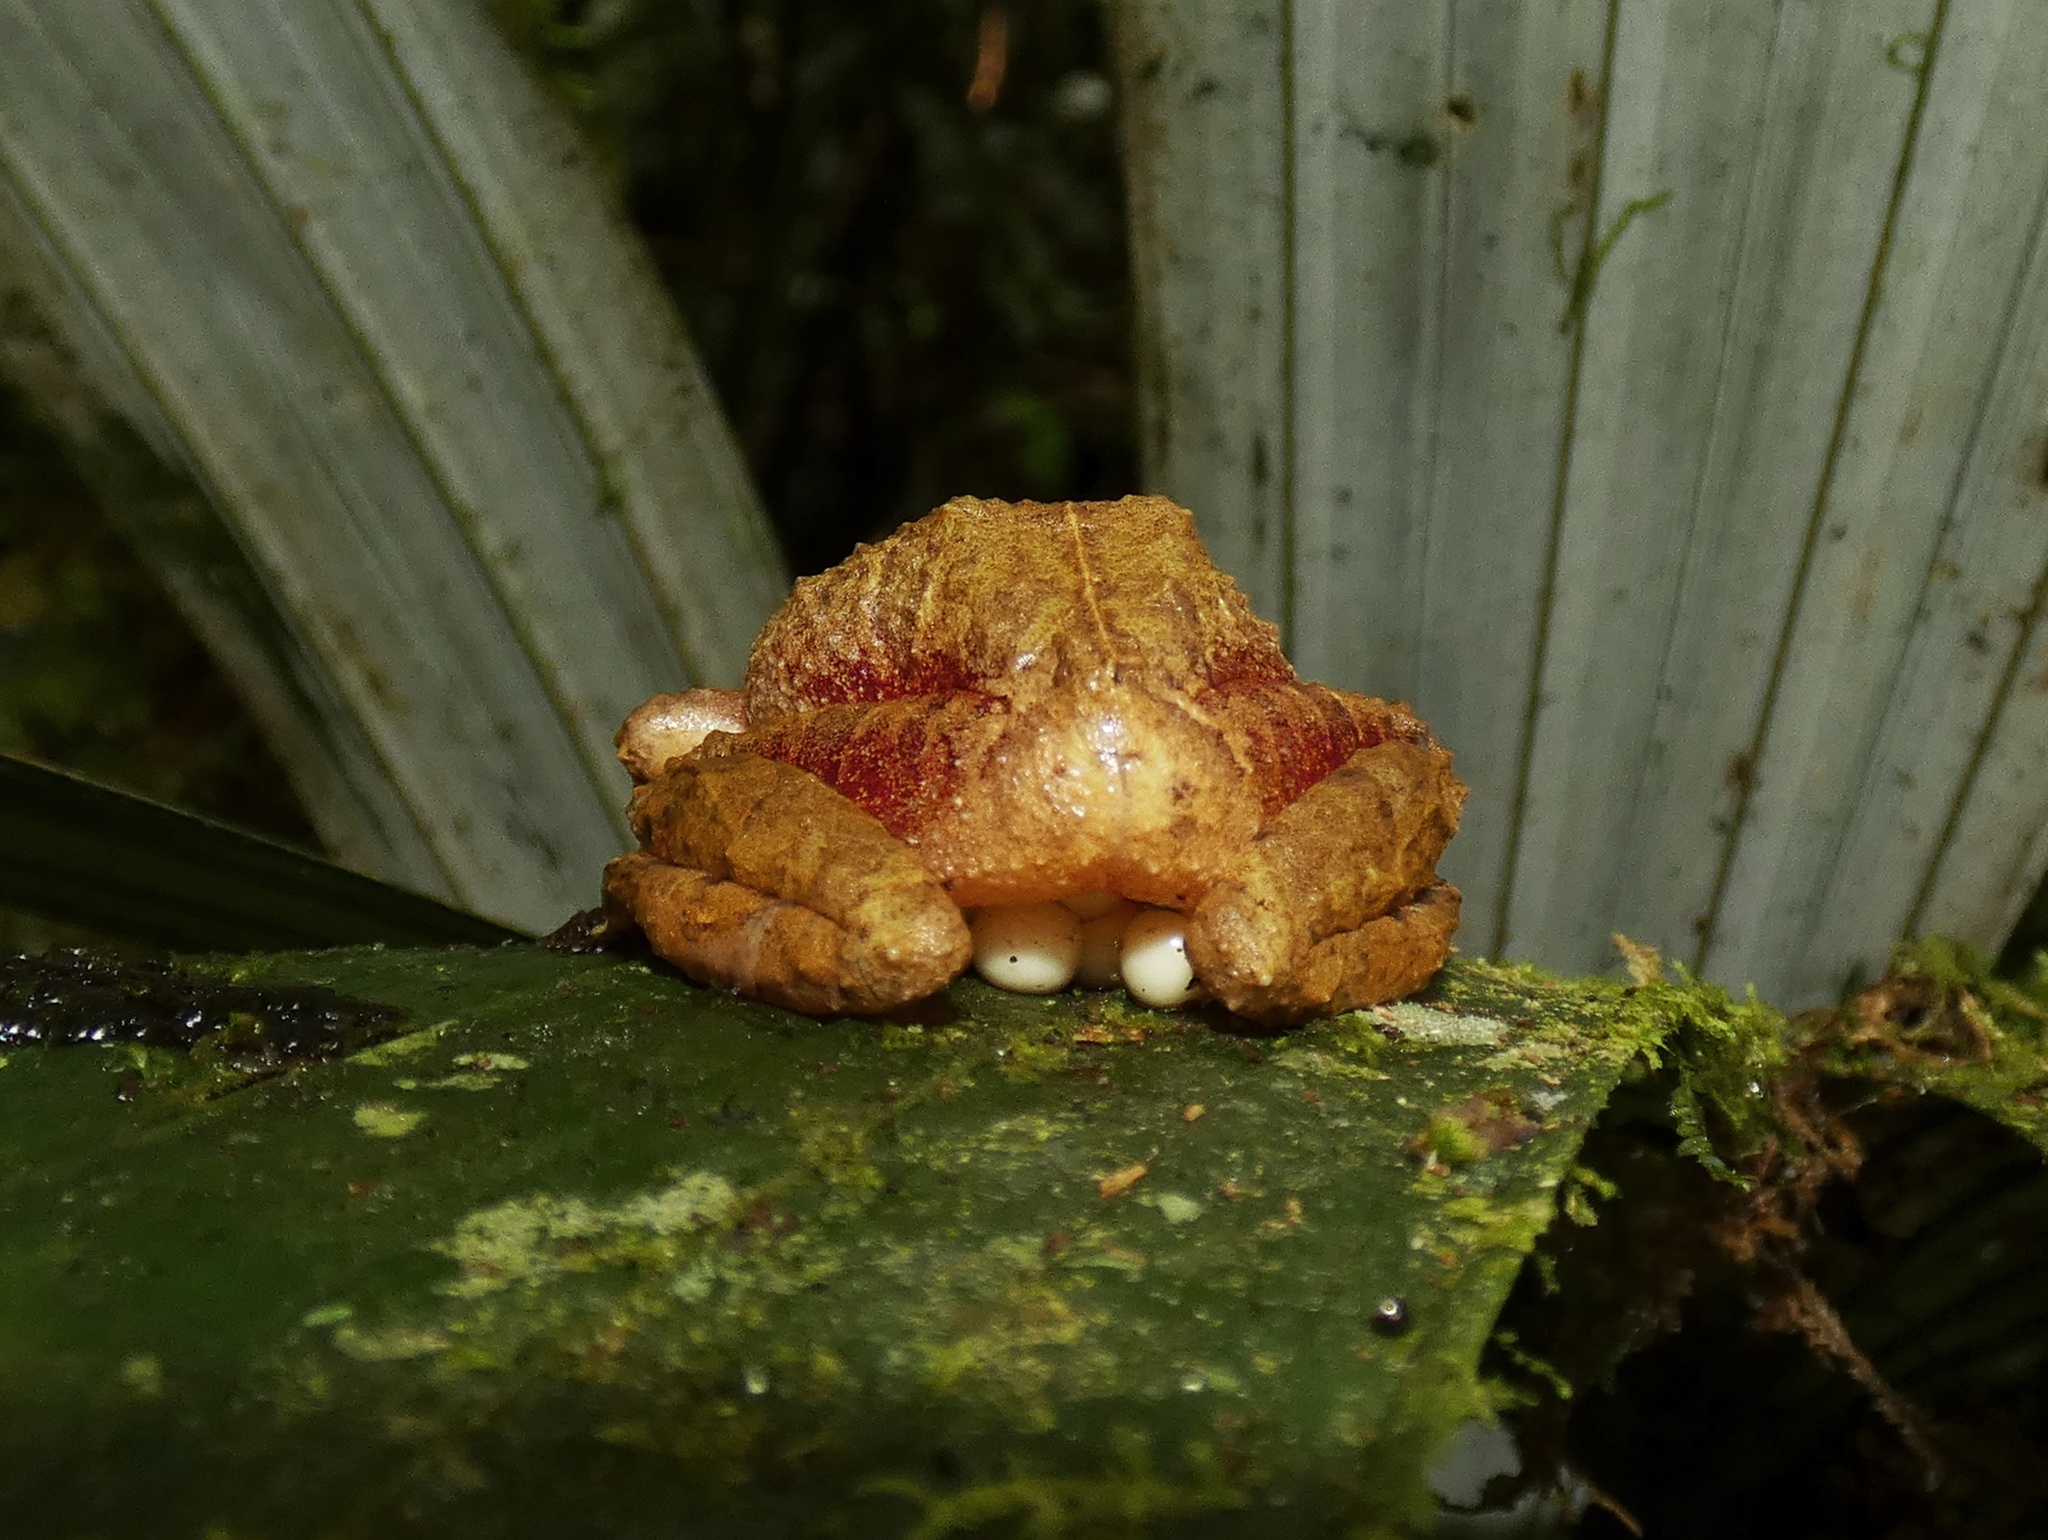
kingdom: Animalia
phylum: Chordata
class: Amphibia
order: Anura
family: Craugastoridae
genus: Pristimantis
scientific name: Pristimantis gretathunbergae
